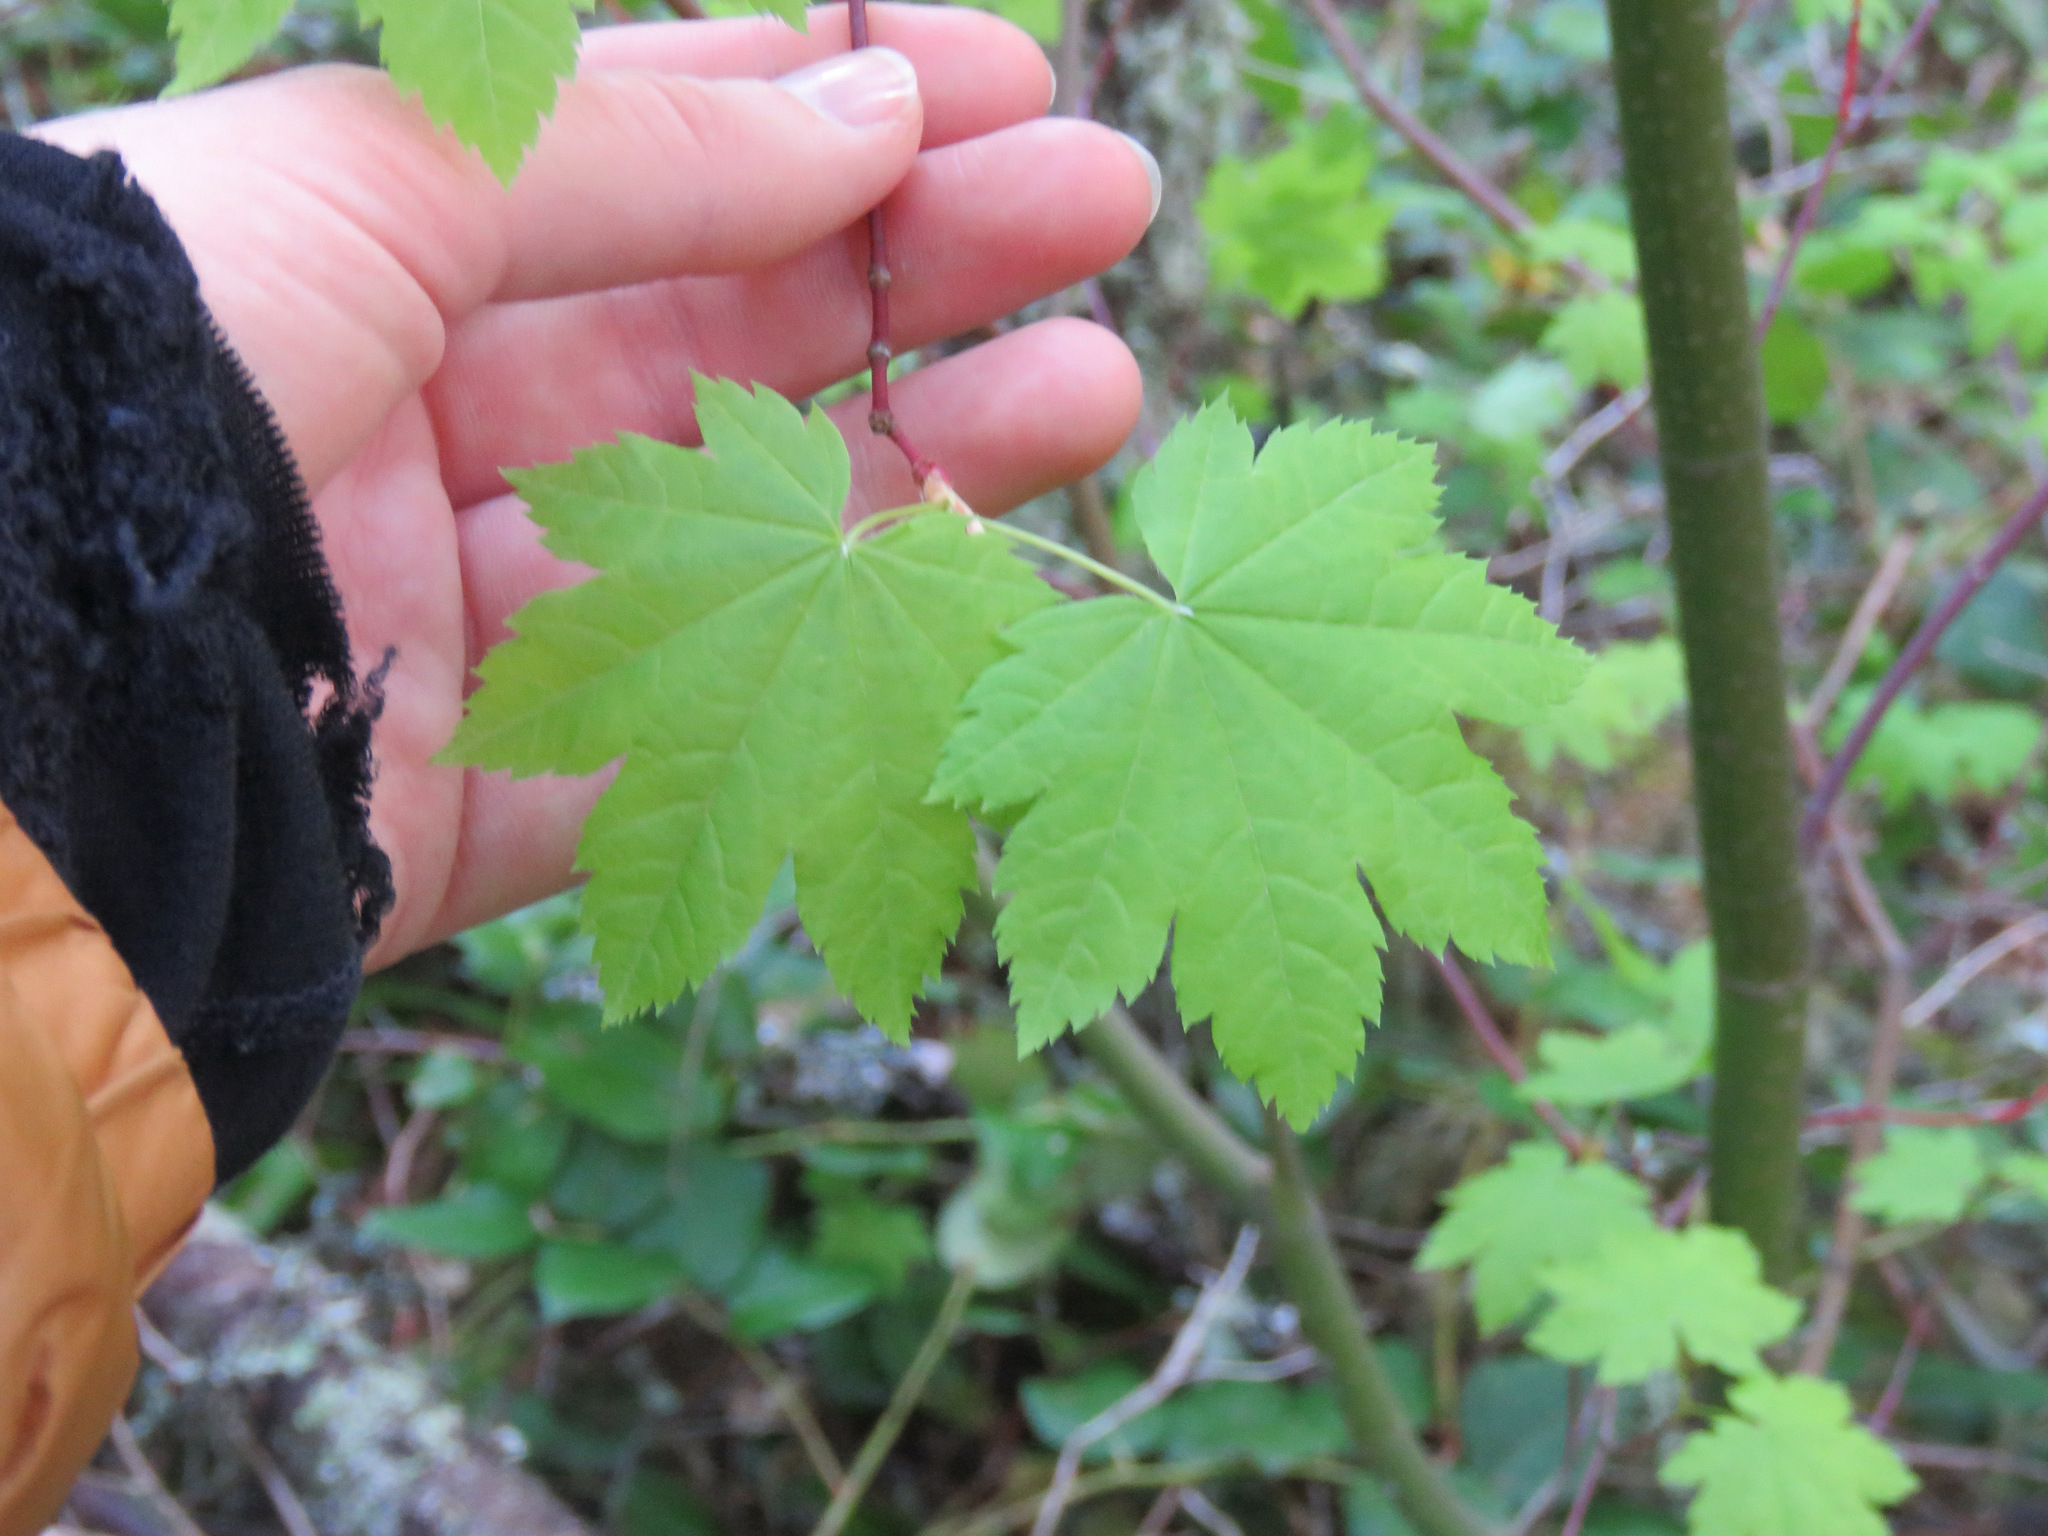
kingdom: Plantae
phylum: Tracheophyta
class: Magnoliopsida
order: Sapindales
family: Sapindaceae
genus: Acer
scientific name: Acer circinatum
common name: Vine maple
